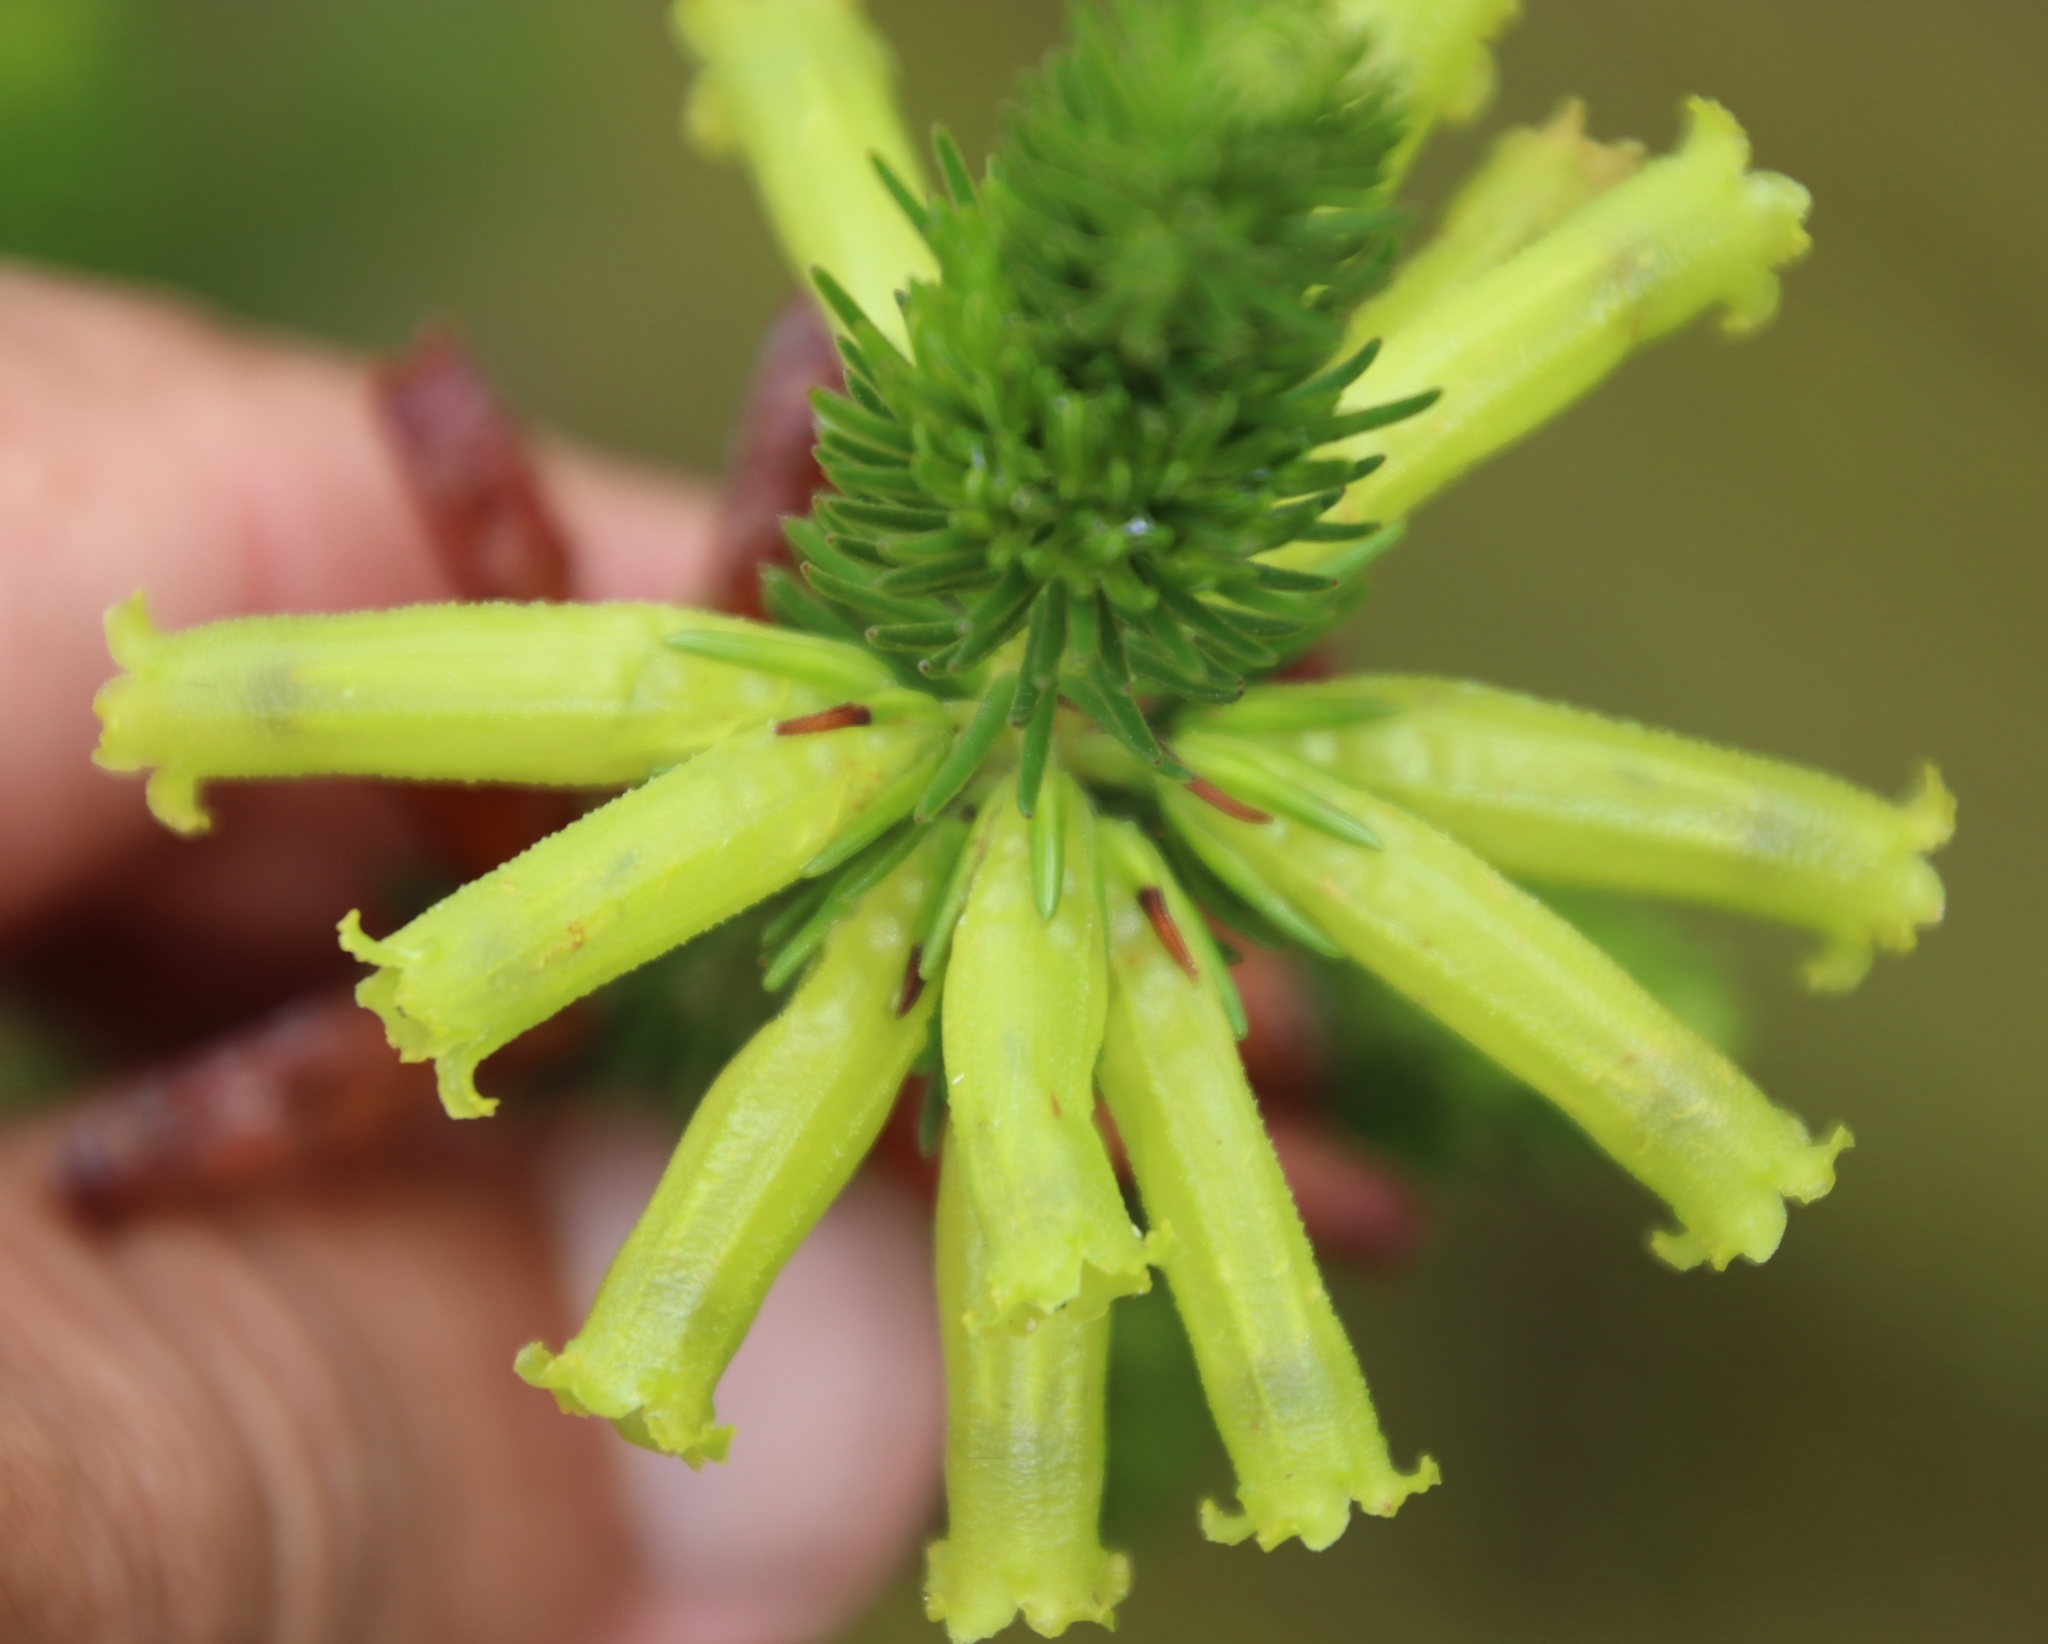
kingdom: Plantae
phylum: Tracheophyta
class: Magnoliopsida
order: Ericales
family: Ericaceae
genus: Erica
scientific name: Erica viscaria
